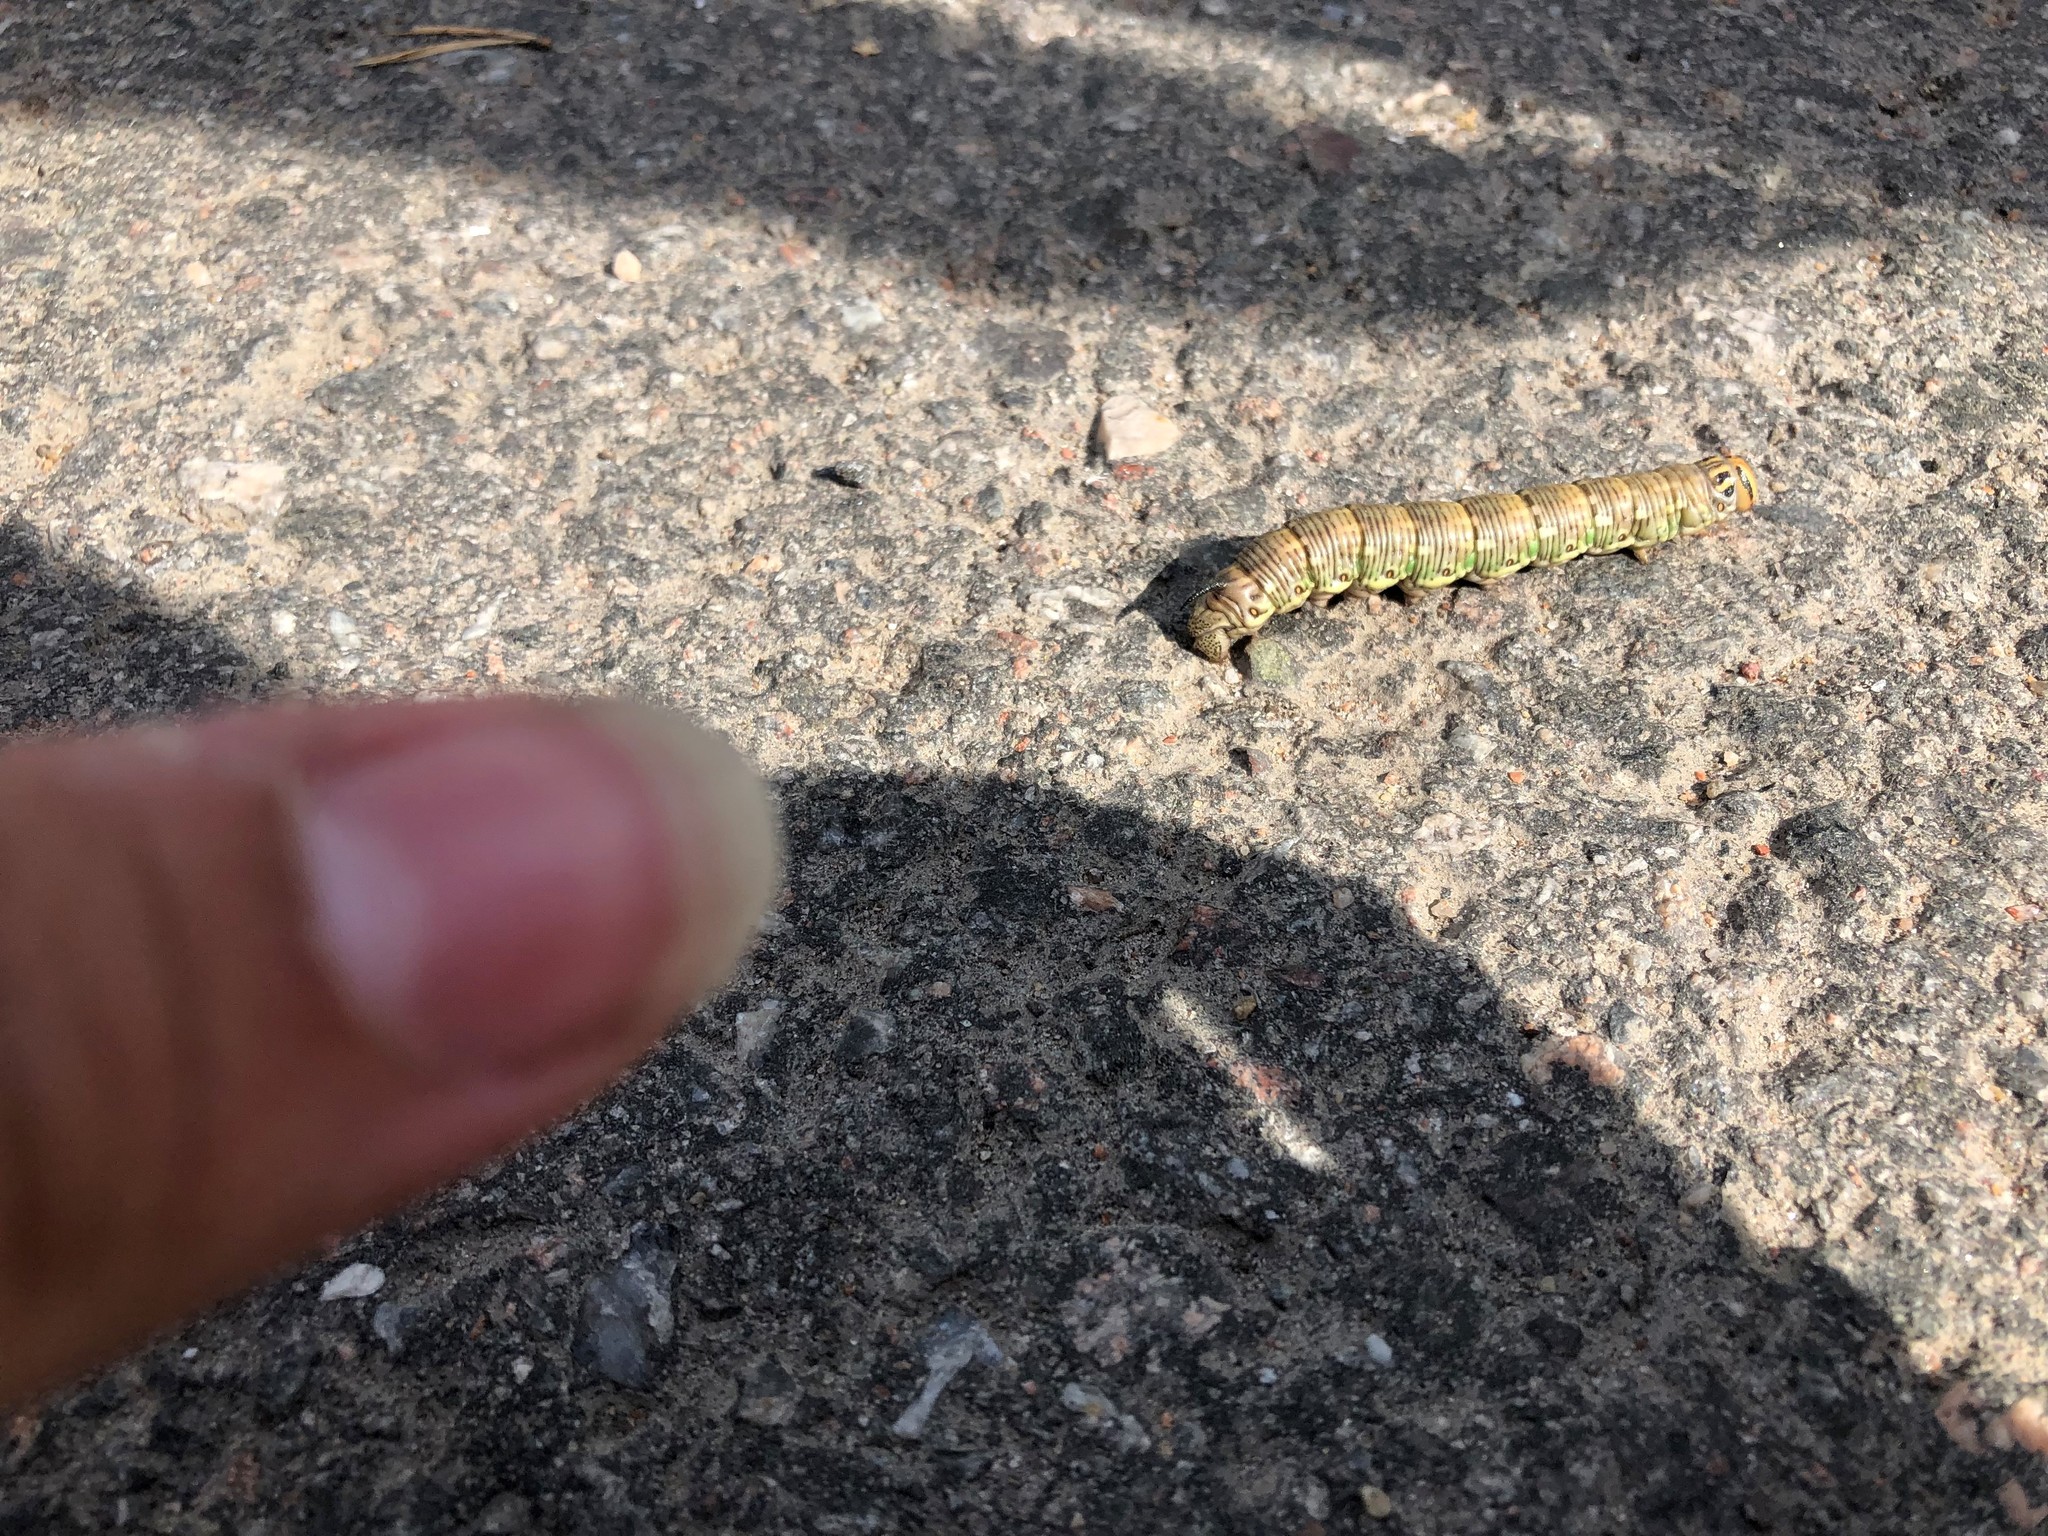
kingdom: Animalia
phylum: Arthropoda
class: Insecta
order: Lepidoptera
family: Sphingidae
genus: Sphinx
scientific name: Sphinx pinastri
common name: Pine hawk-moth
